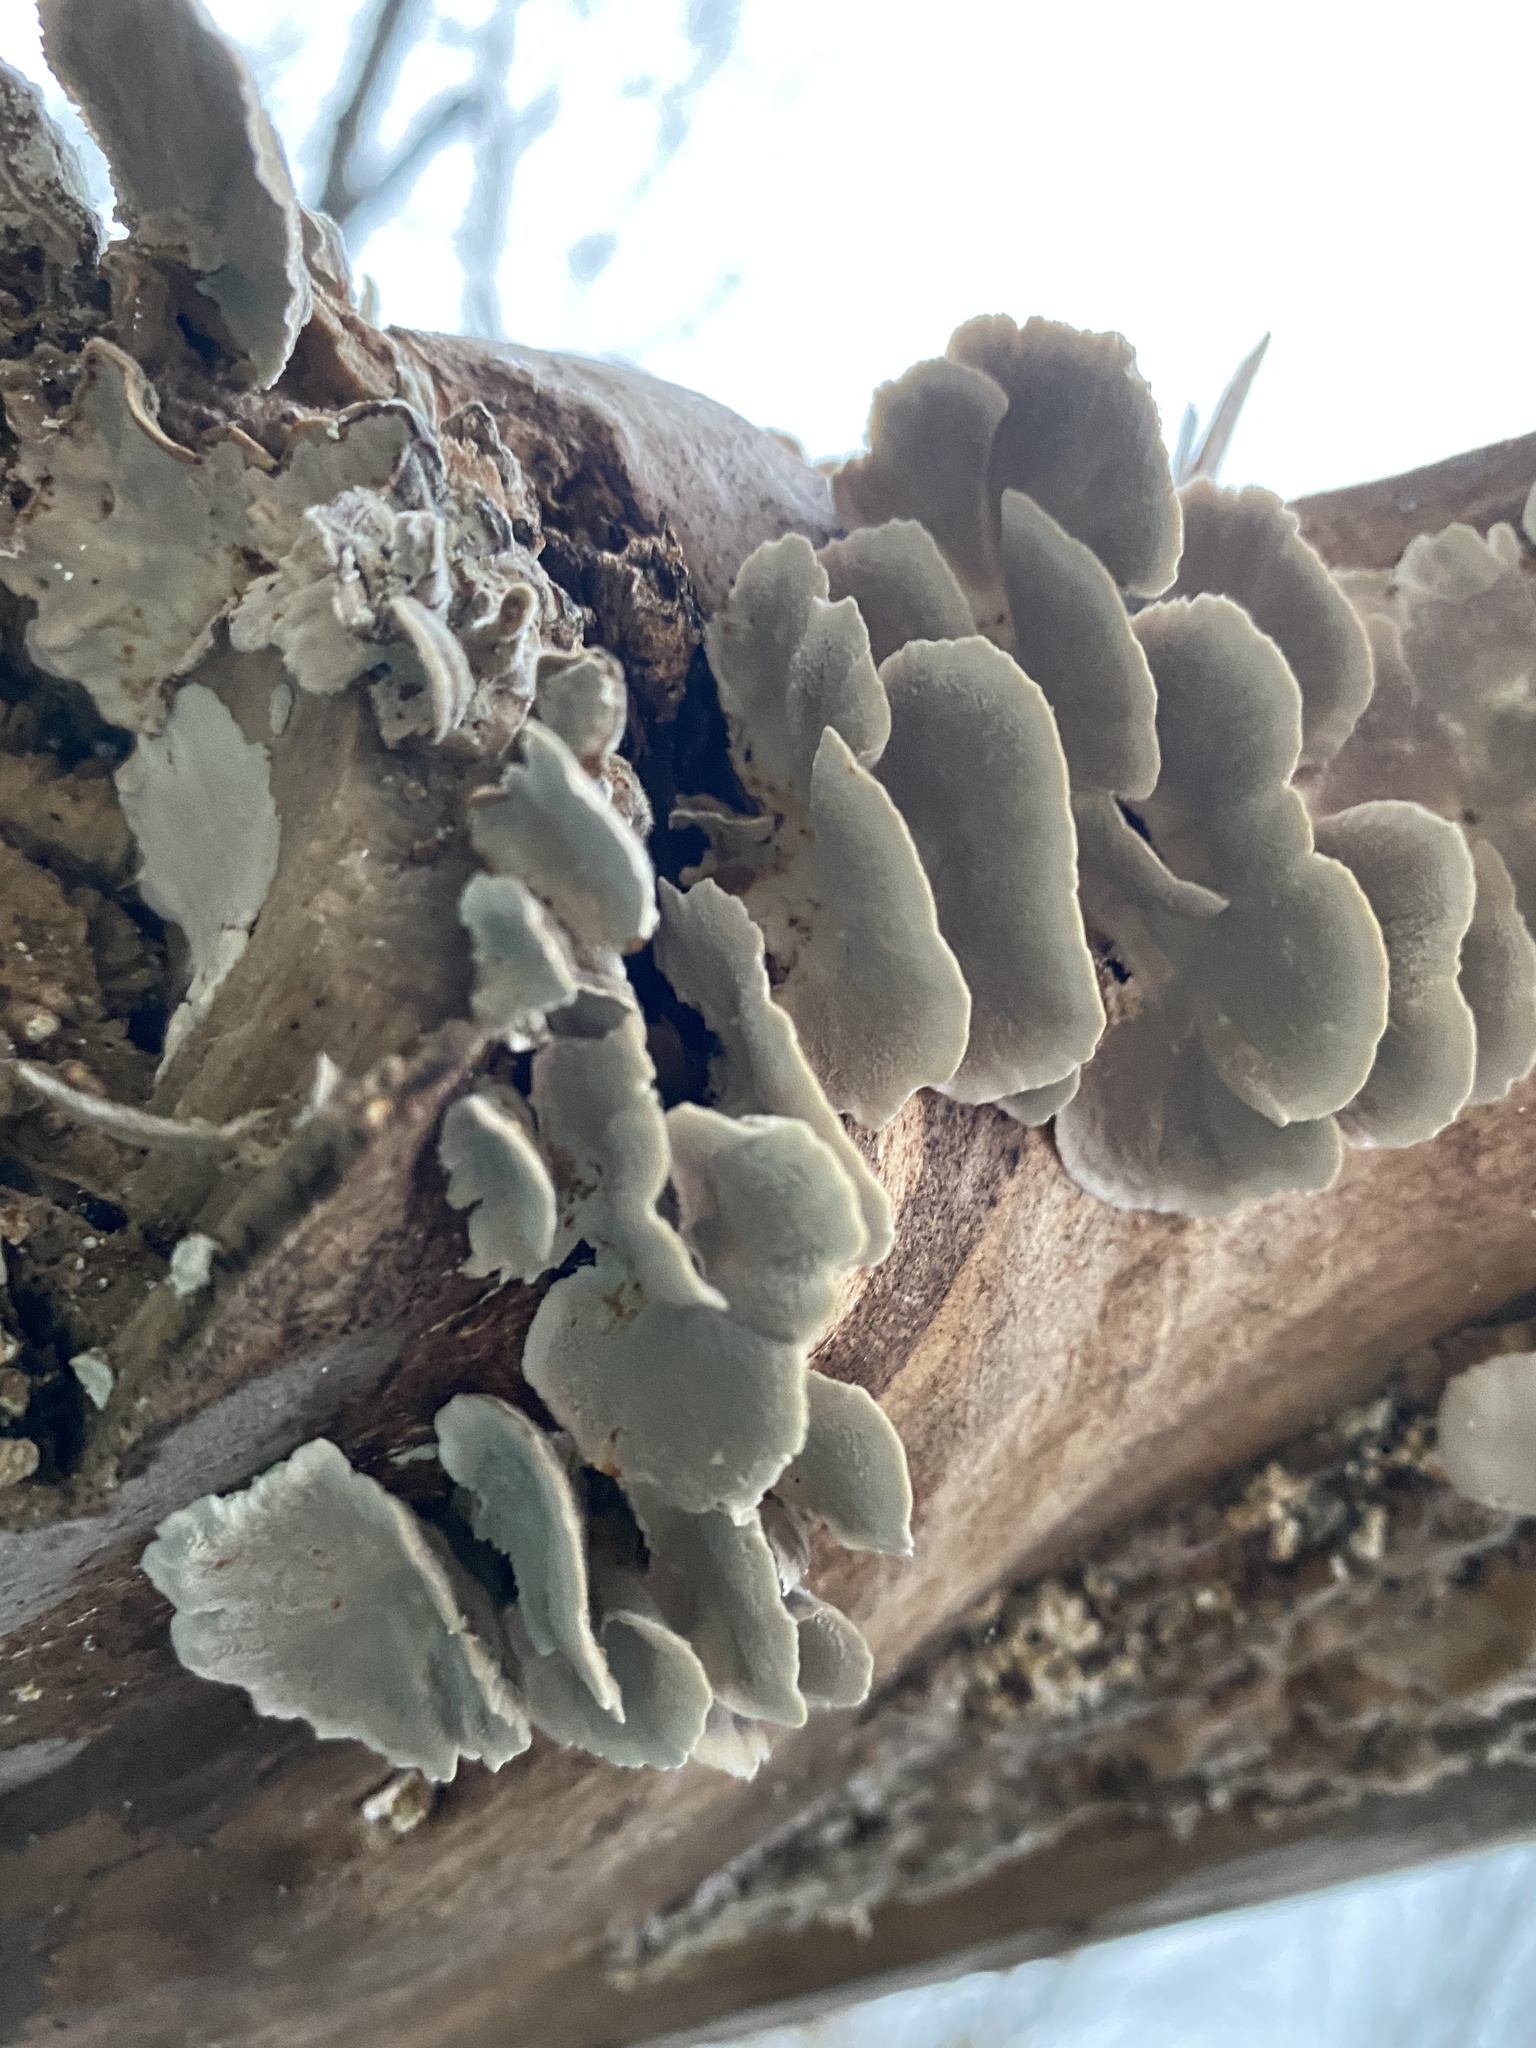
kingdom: Fungi
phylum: Basidiomycota
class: Agaricomycetes
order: Polyporales
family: Polyporaceae
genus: Trametes
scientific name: Trametes versicolor
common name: Turkeytail
